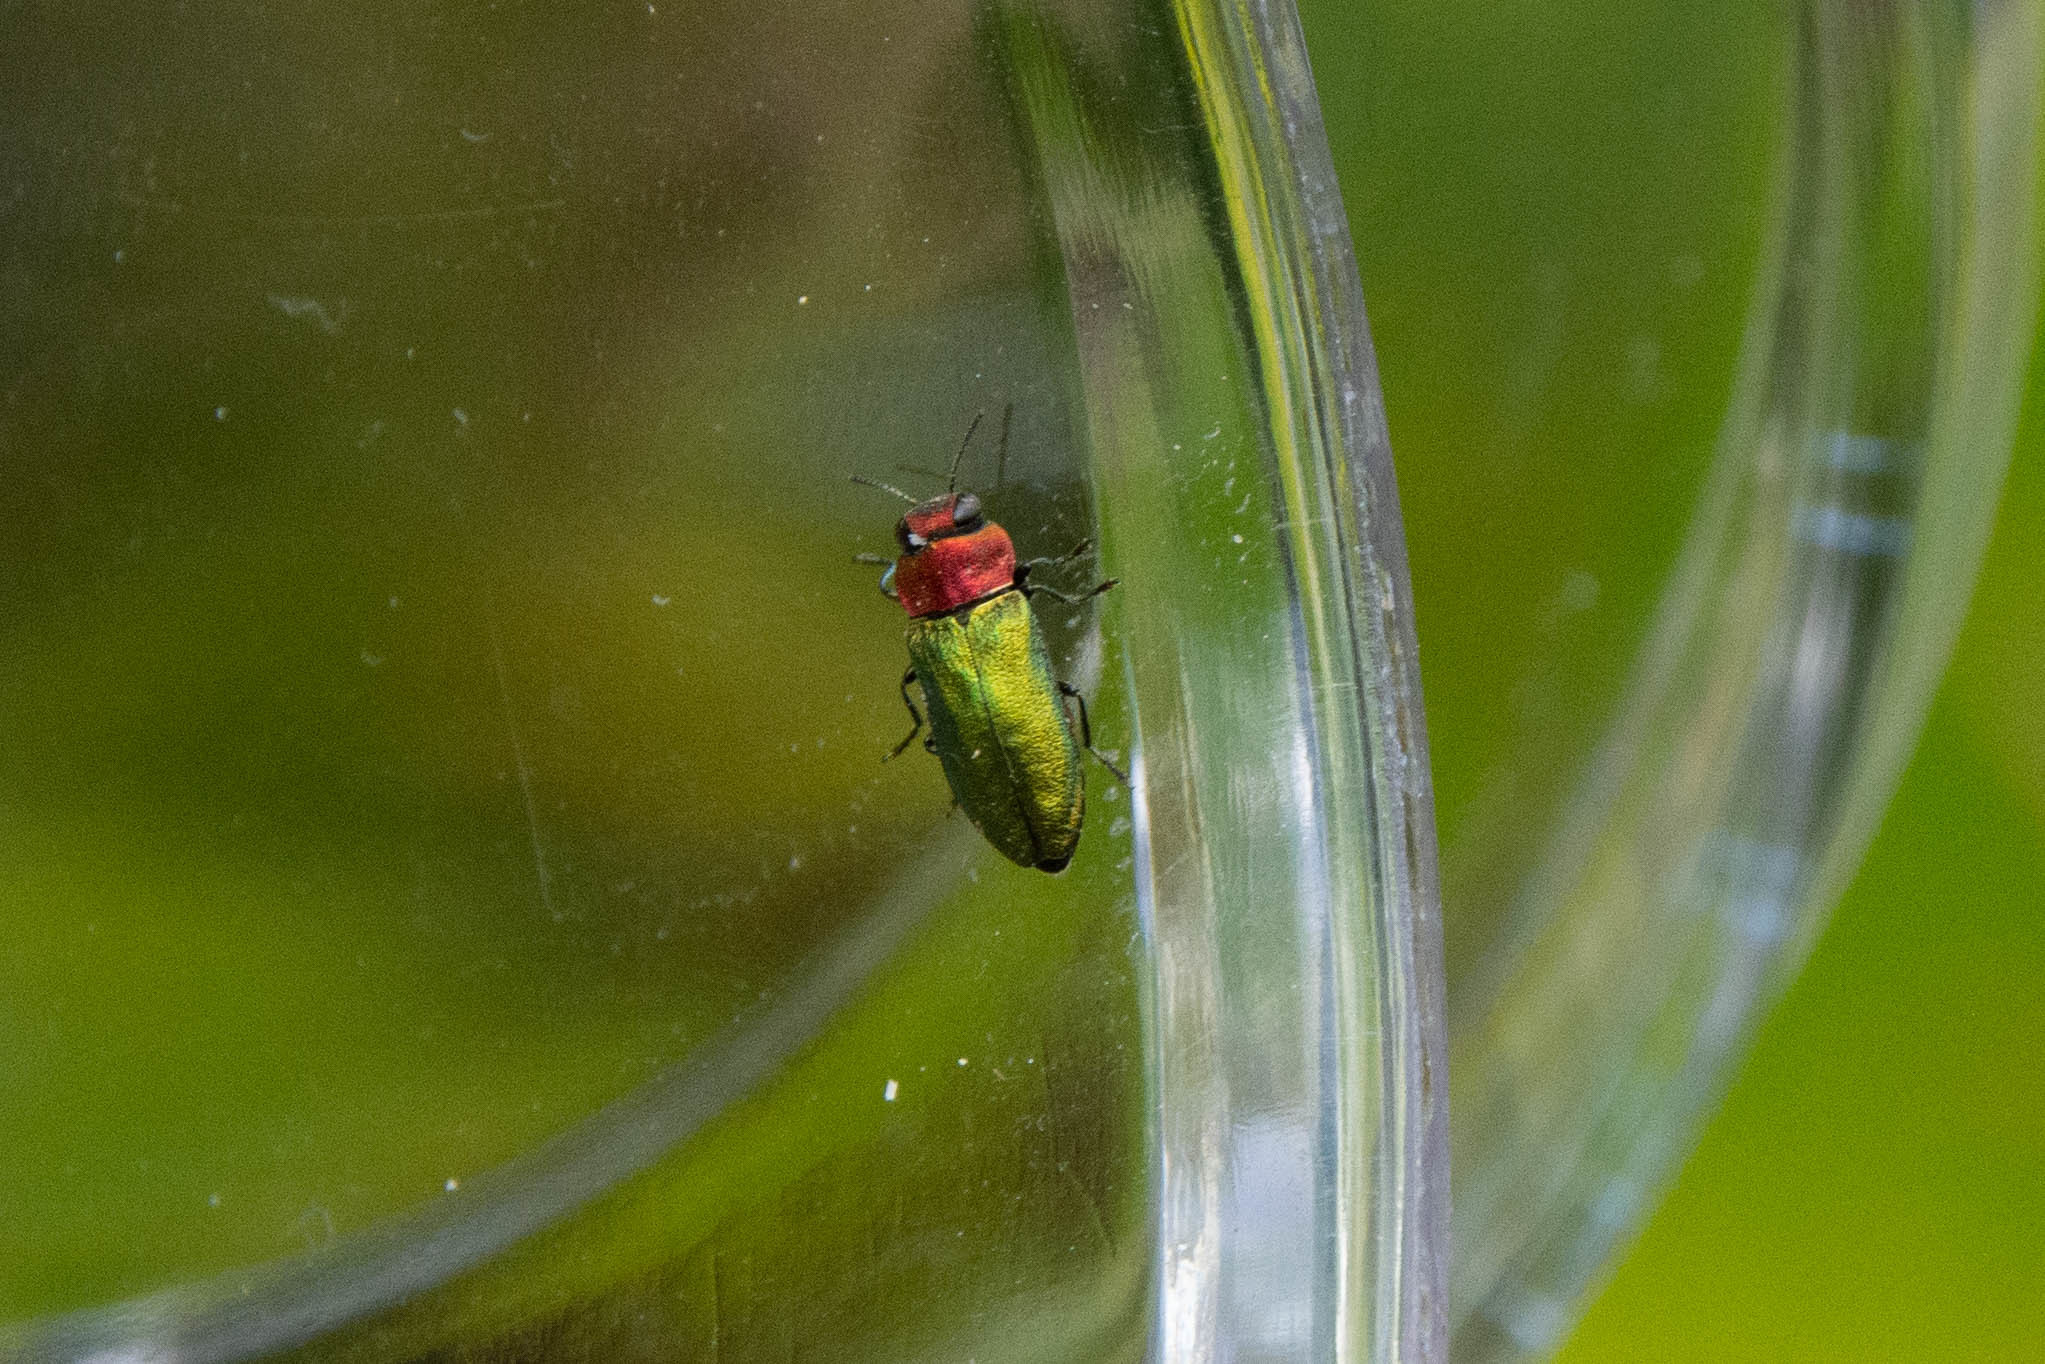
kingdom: Animalia
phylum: Arthropoda
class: Insecta
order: Coleoptera
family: Buprestidae
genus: Anthaxia
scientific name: Anthaxia nitidula
